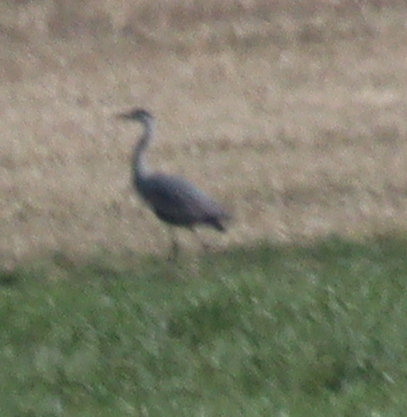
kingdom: Animalia
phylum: Chordata
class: Aves
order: Pelecaniformes
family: Ardeidae
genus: Ardea
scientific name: Ardea cinerea
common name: Grey heron
